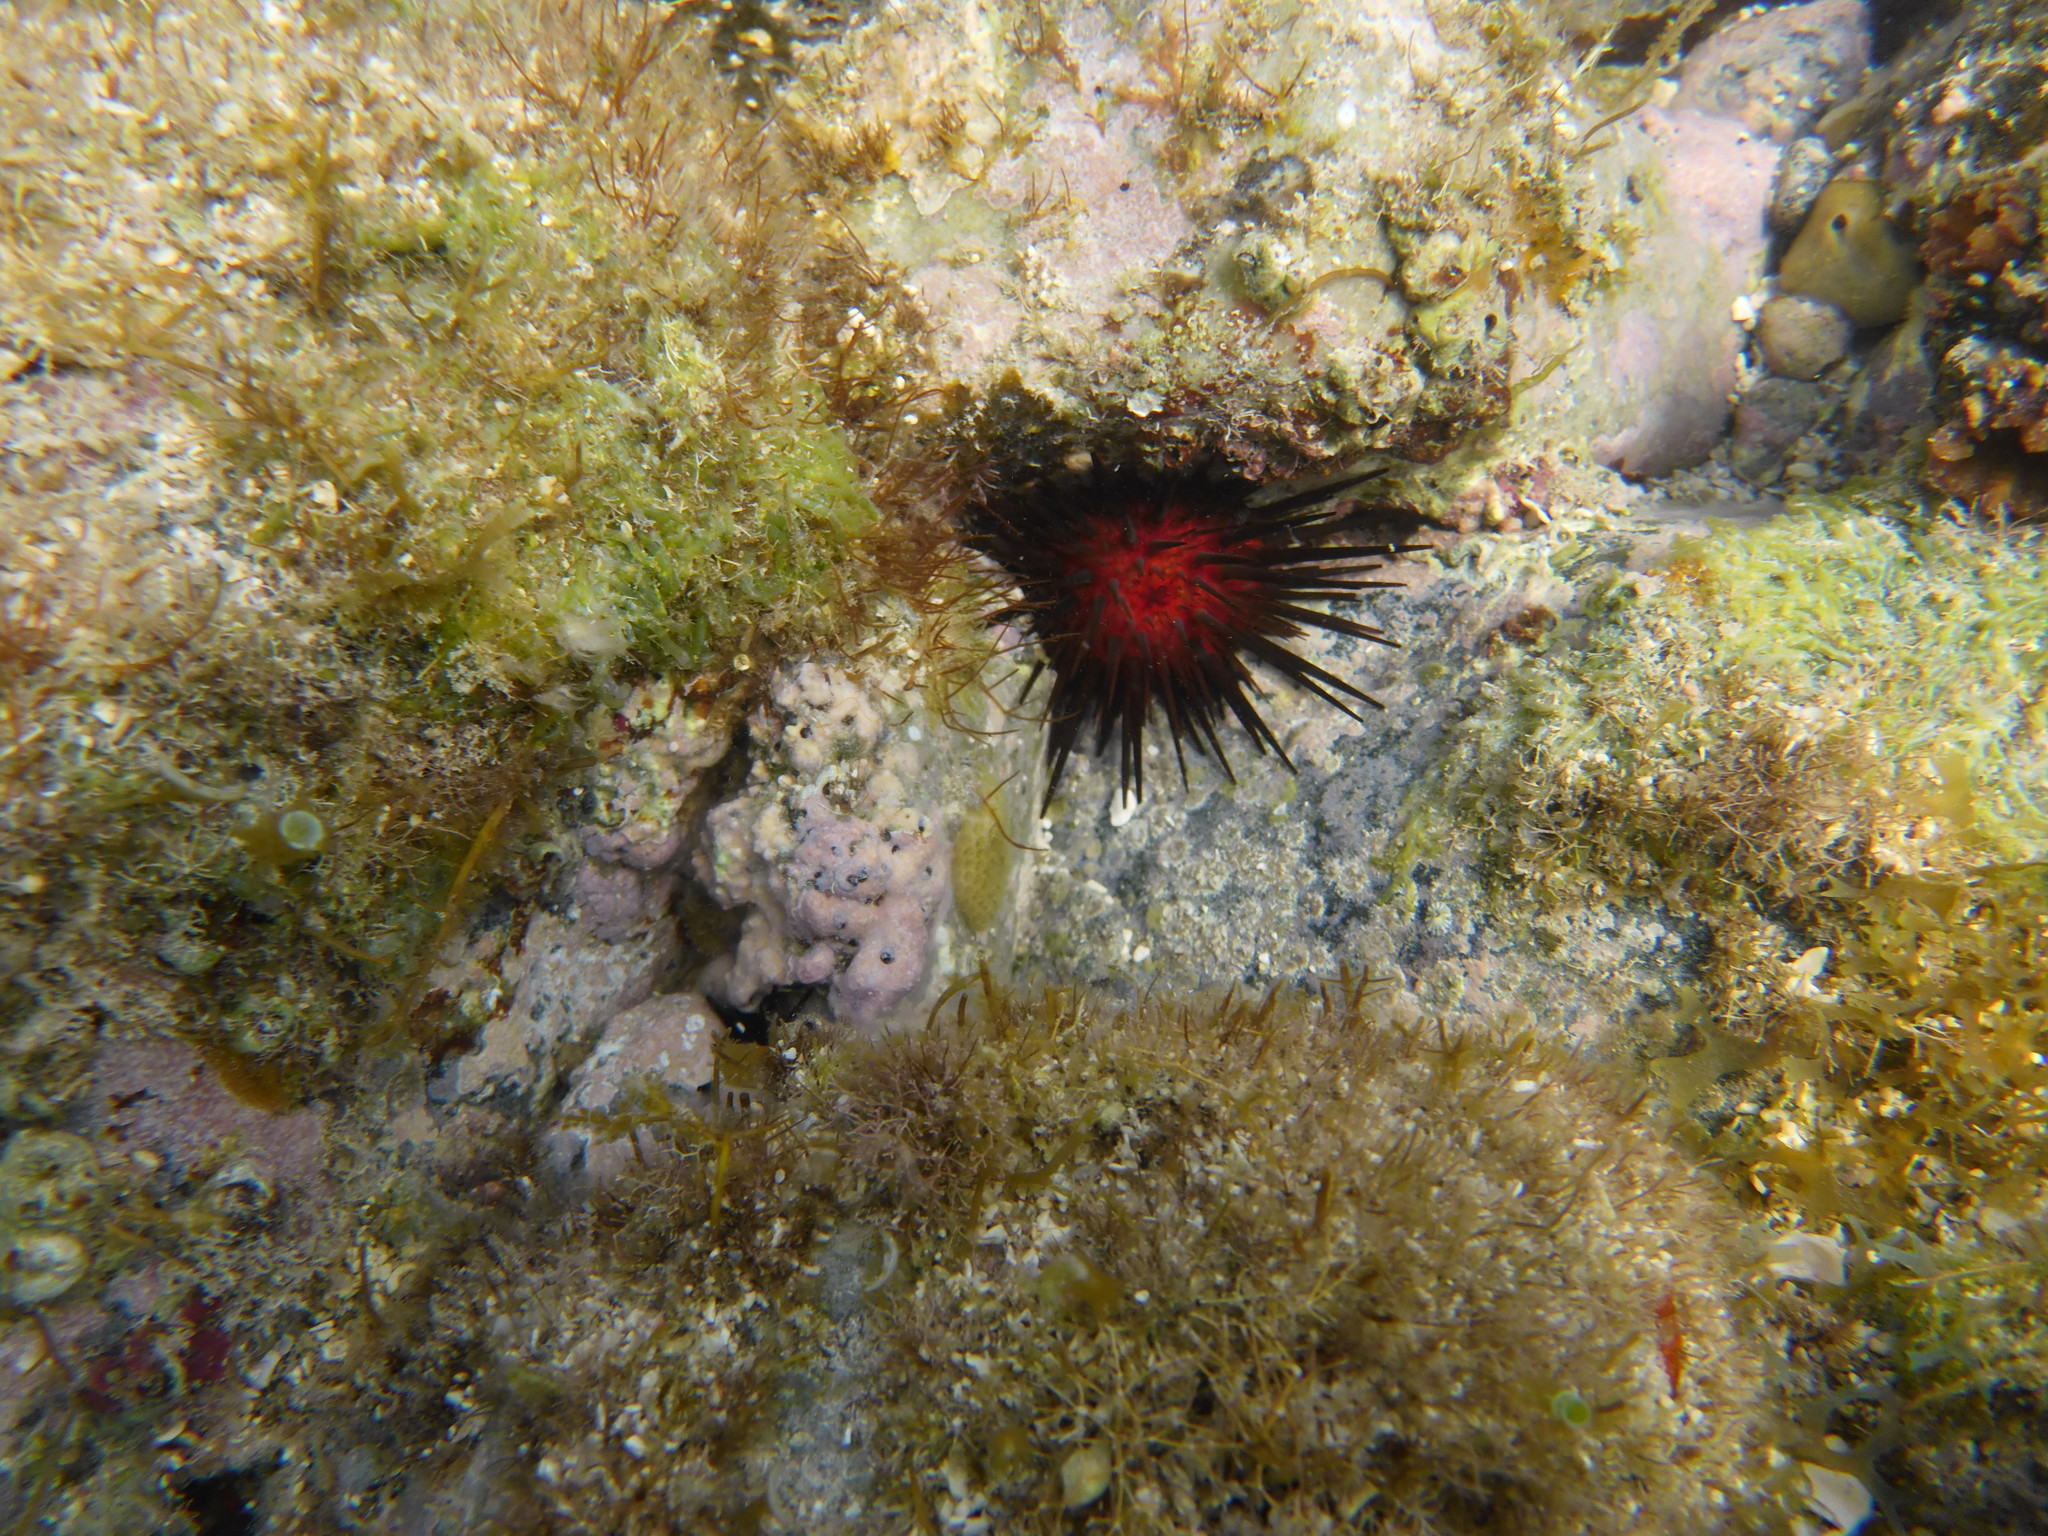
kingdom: Animalia
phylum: Echinodermata
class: Echinoidea
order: Camarodonta
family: Echinometridae
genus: Echinometra
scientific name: Echinometra lucunter
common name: Rock urchin
